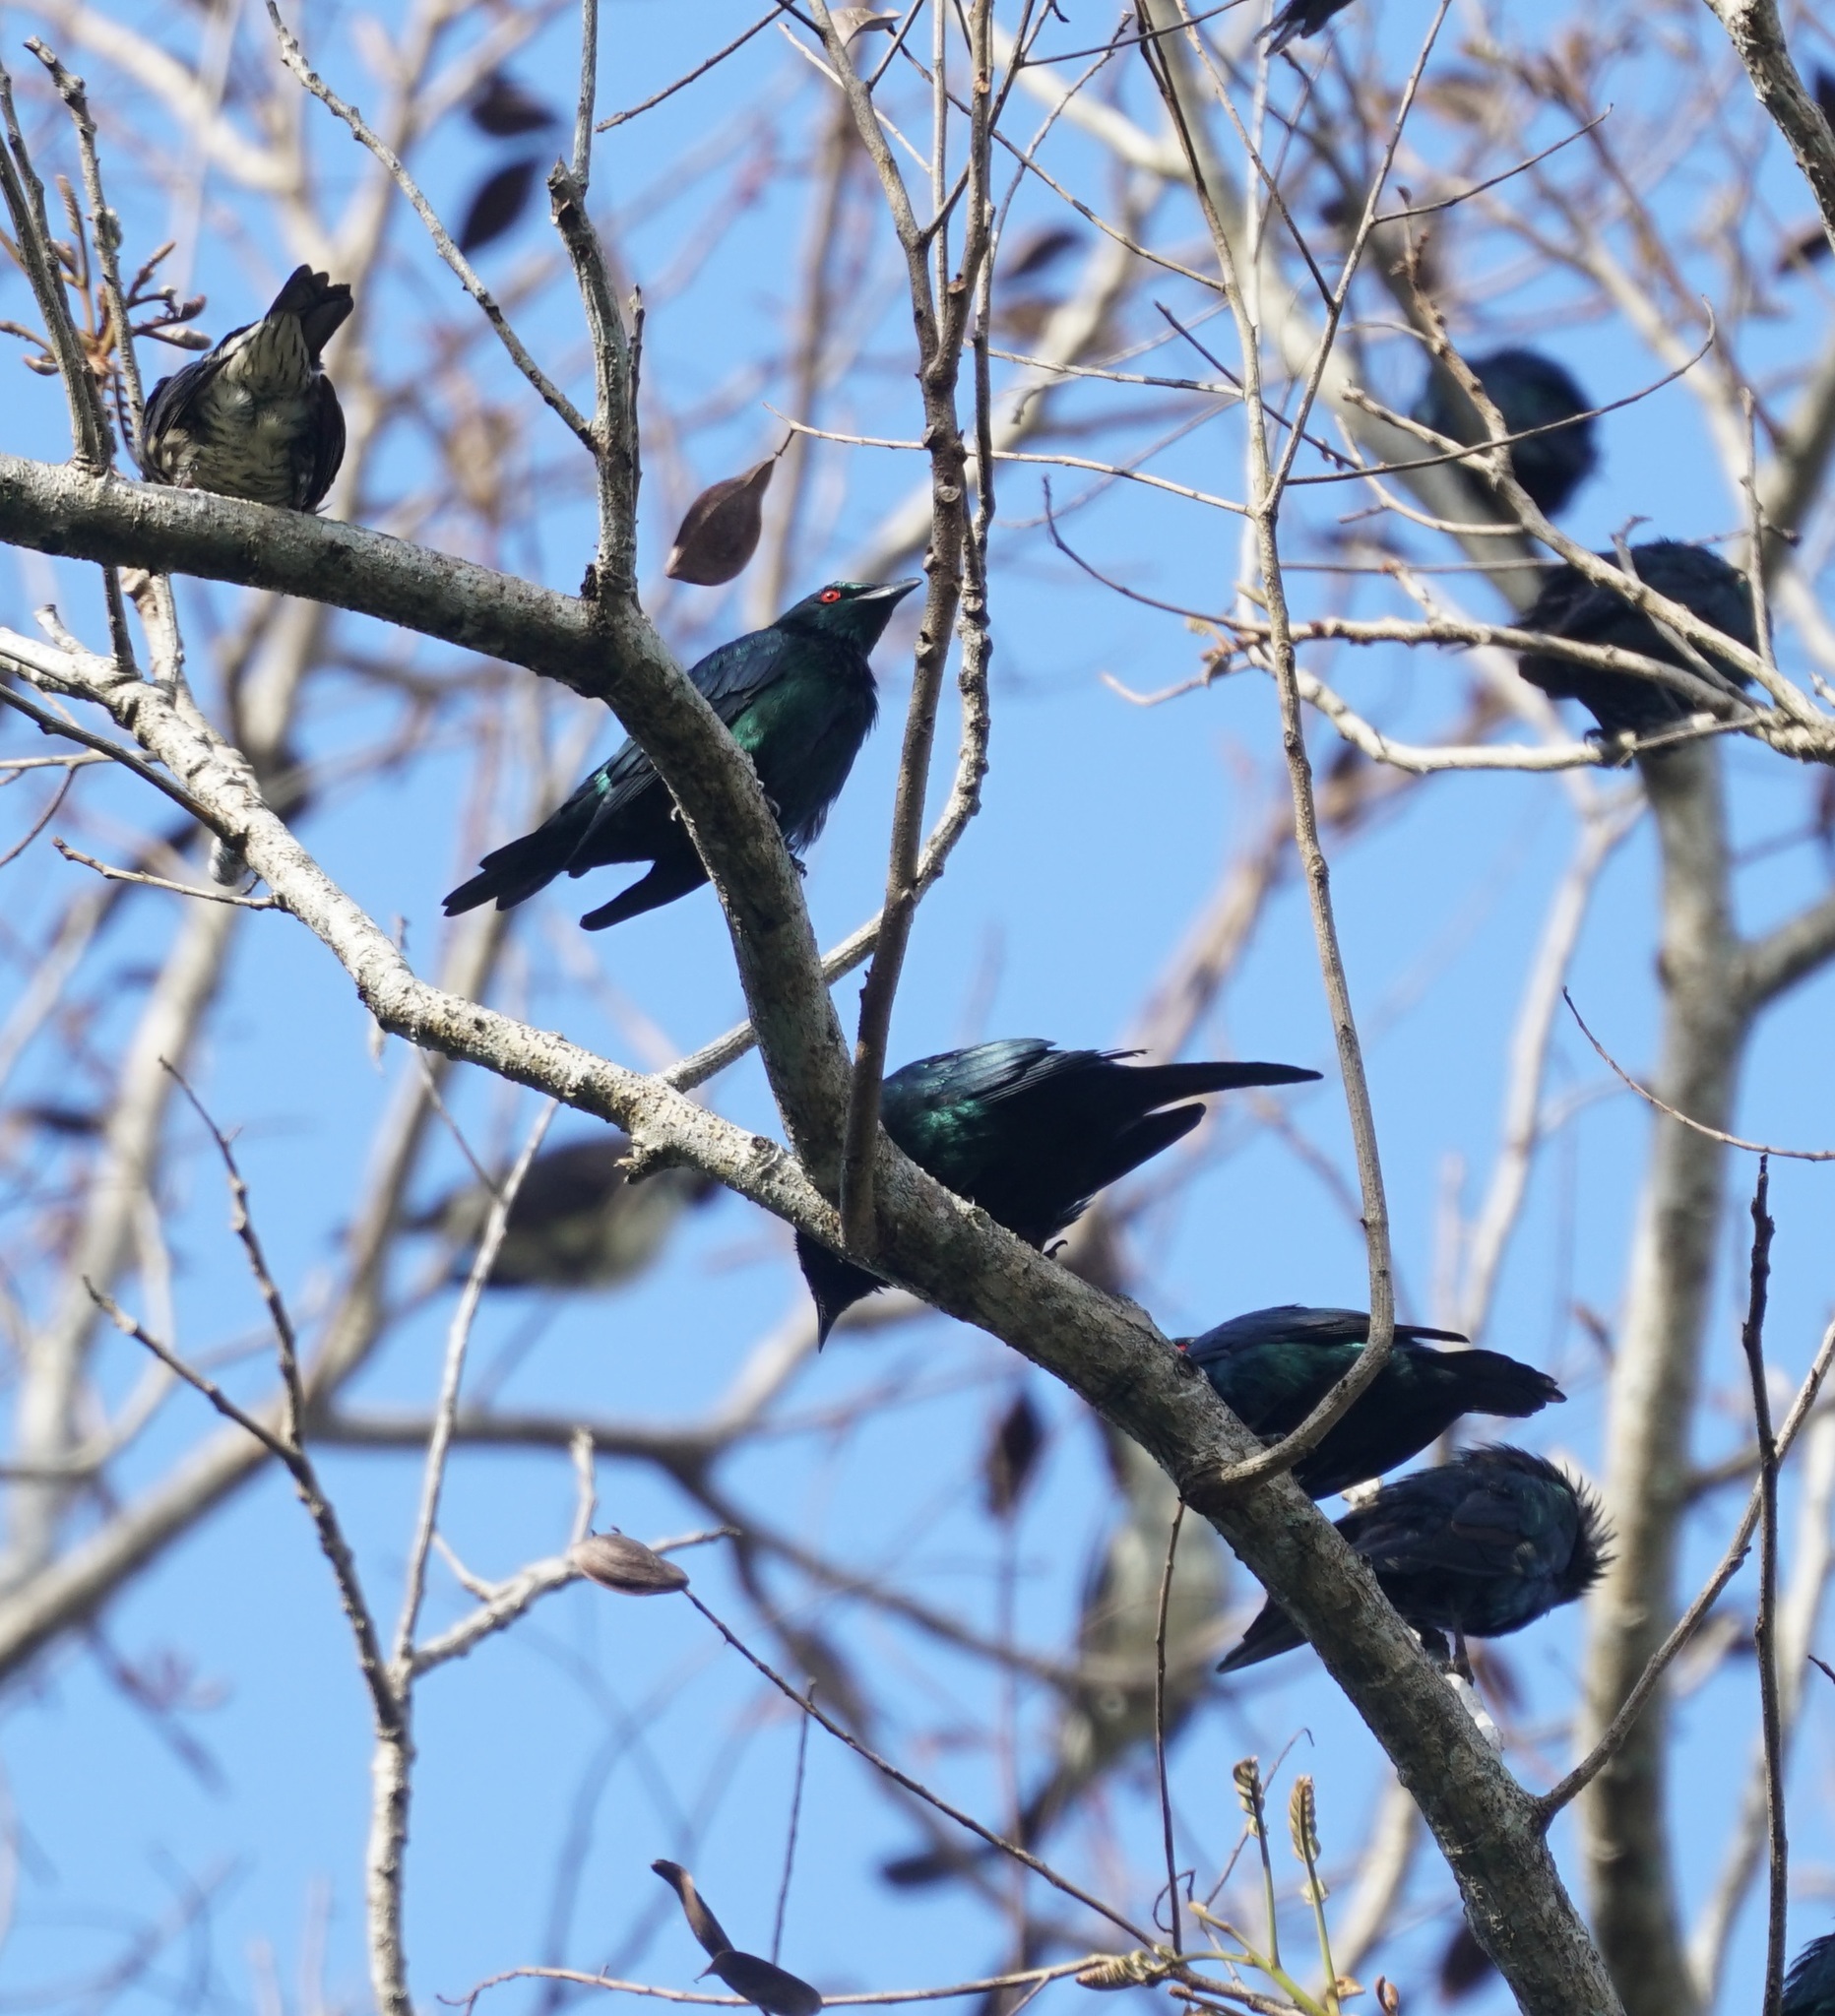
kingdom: Animalia
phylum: Chordata
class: Aves
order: Passeriformes
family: Sturnidae
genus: Aplonis
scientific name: Aplonis metallica
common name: Metallic starling
